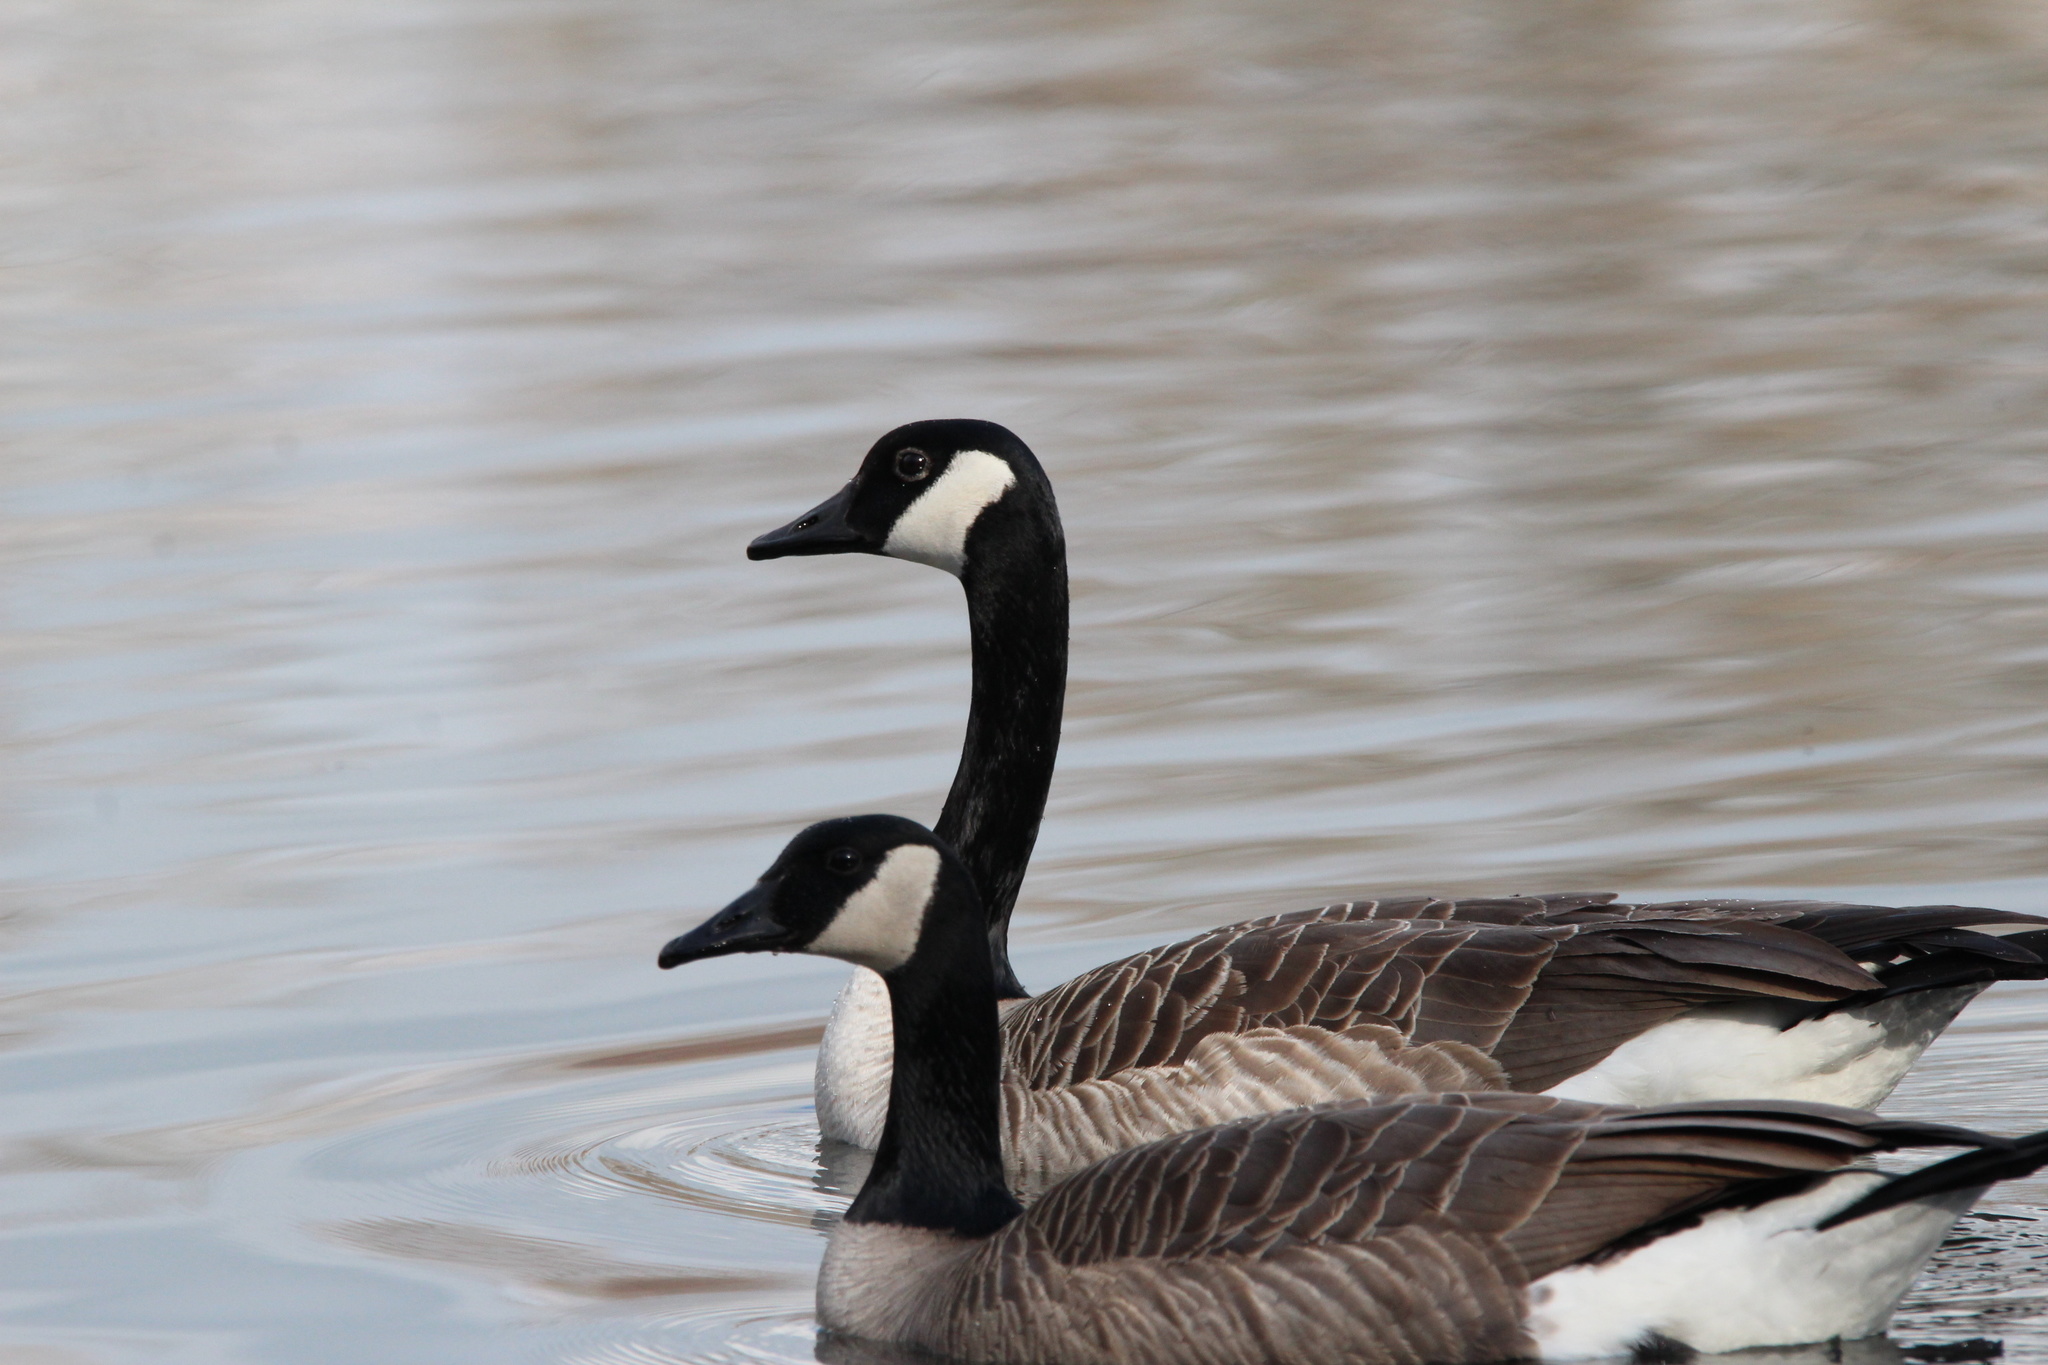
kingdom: Animalia
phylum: Chordata
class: Aves
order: Anseriformes
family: Anatidae
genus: Branta
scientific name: Branta canadensis
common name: Canada goose
